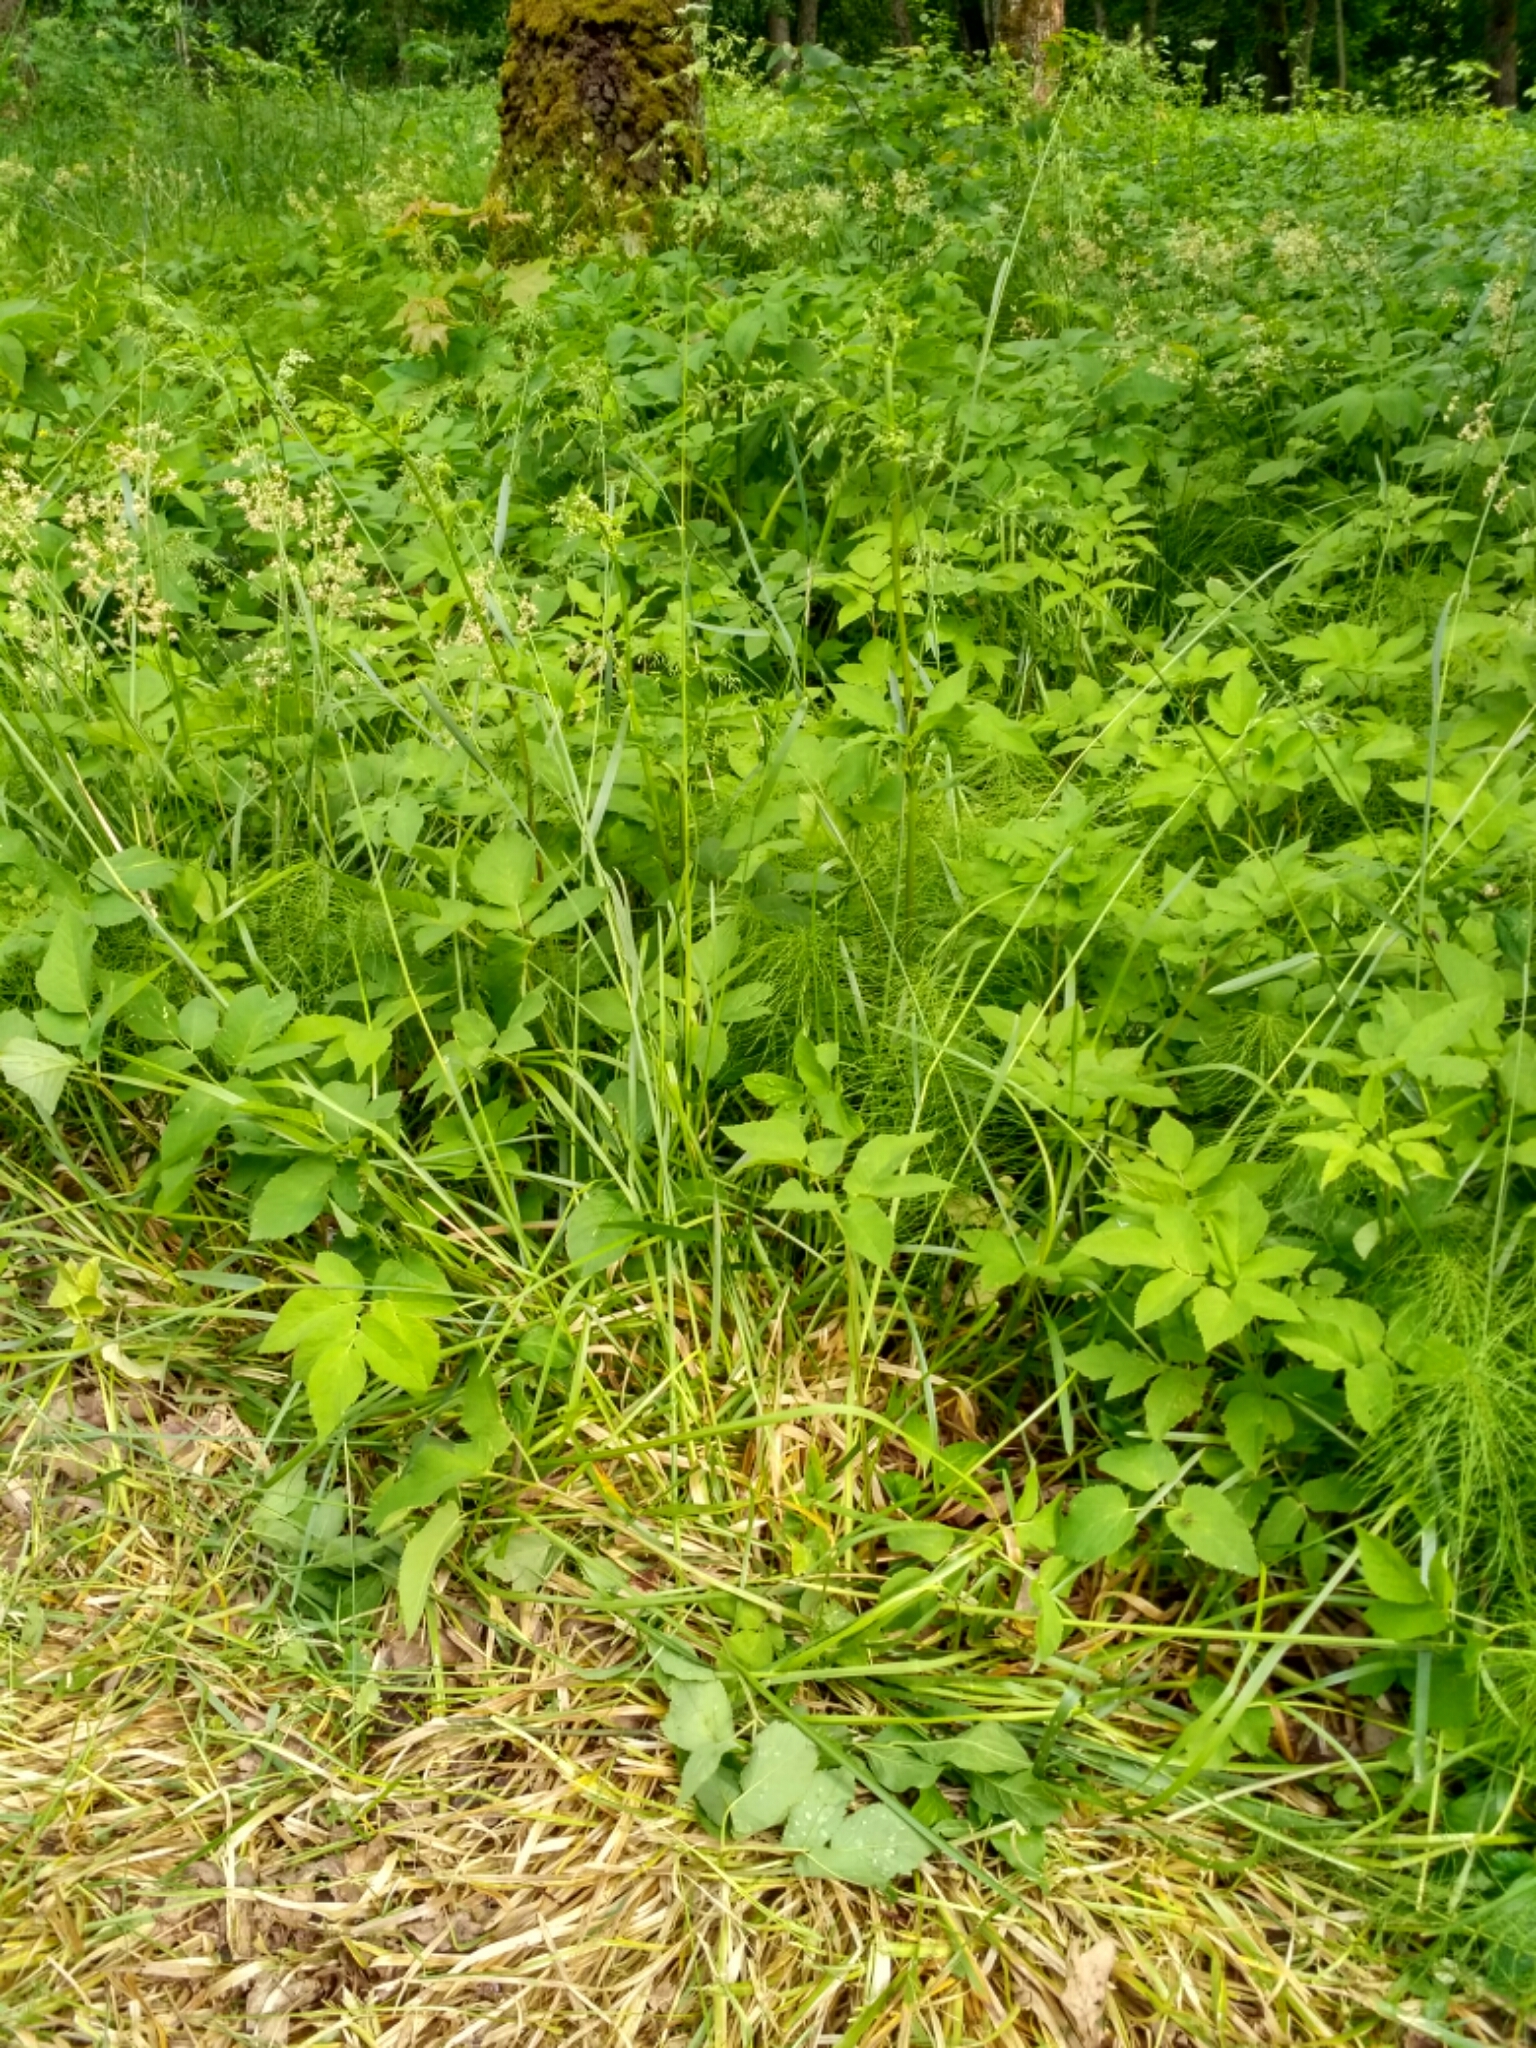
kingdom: Plantae
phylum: Tracheophyta
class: Liliopsida
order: Poales
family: Poaceae
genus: Poa
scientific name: Poa chaixii
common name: Broad-leaved meadow-grass
